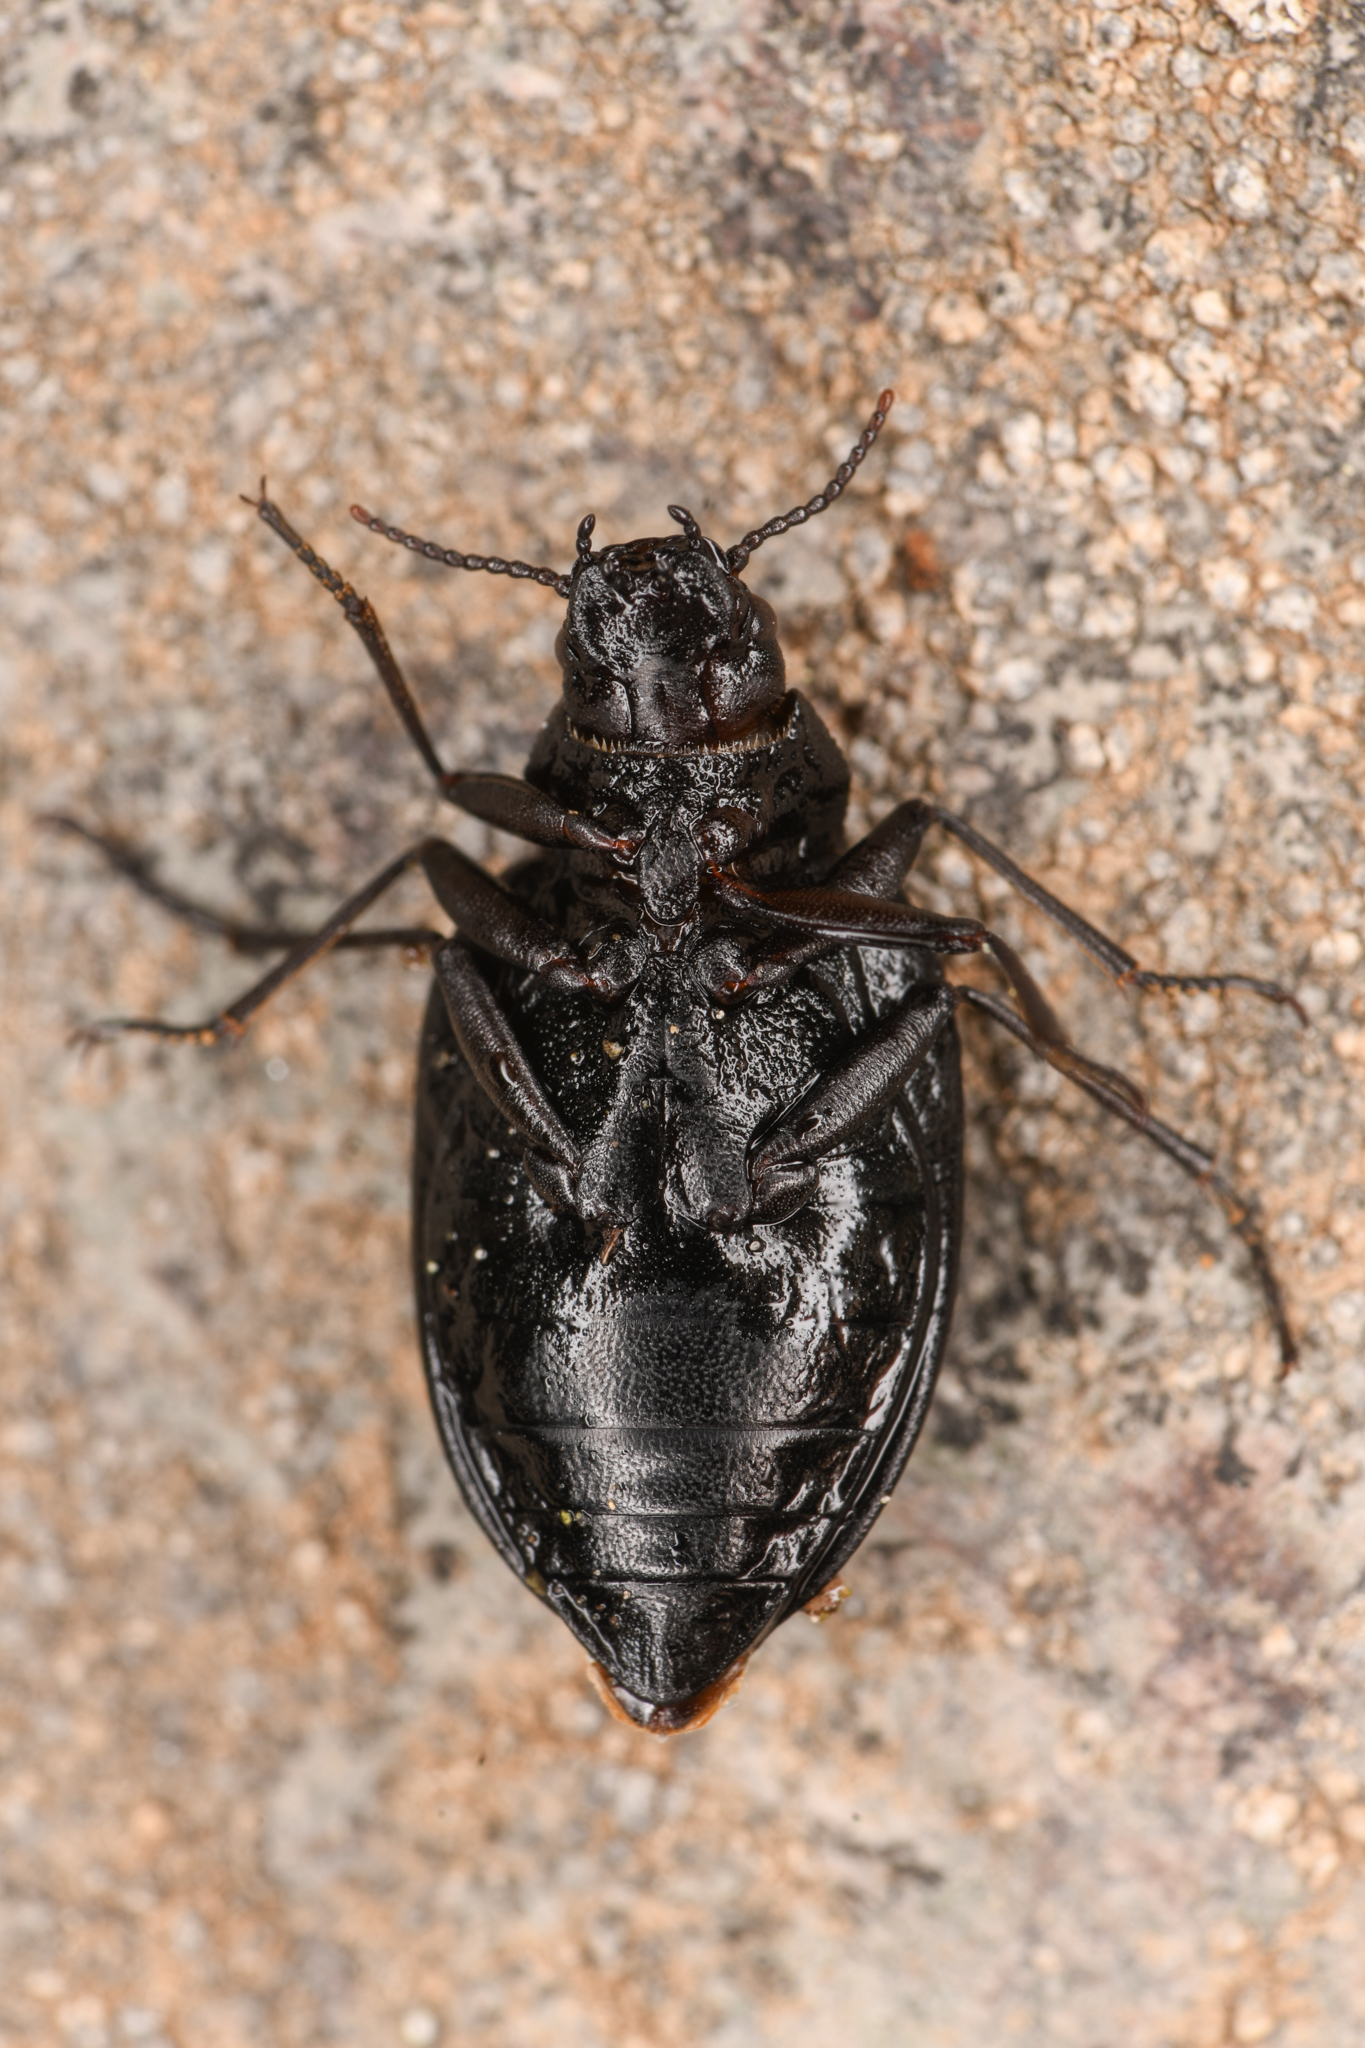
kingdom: Animalia
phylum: Arthropoda
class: Insecta
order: Coleoptera
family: Amphizoidae
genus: Amphizoa
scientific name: Amphizoa insolens
